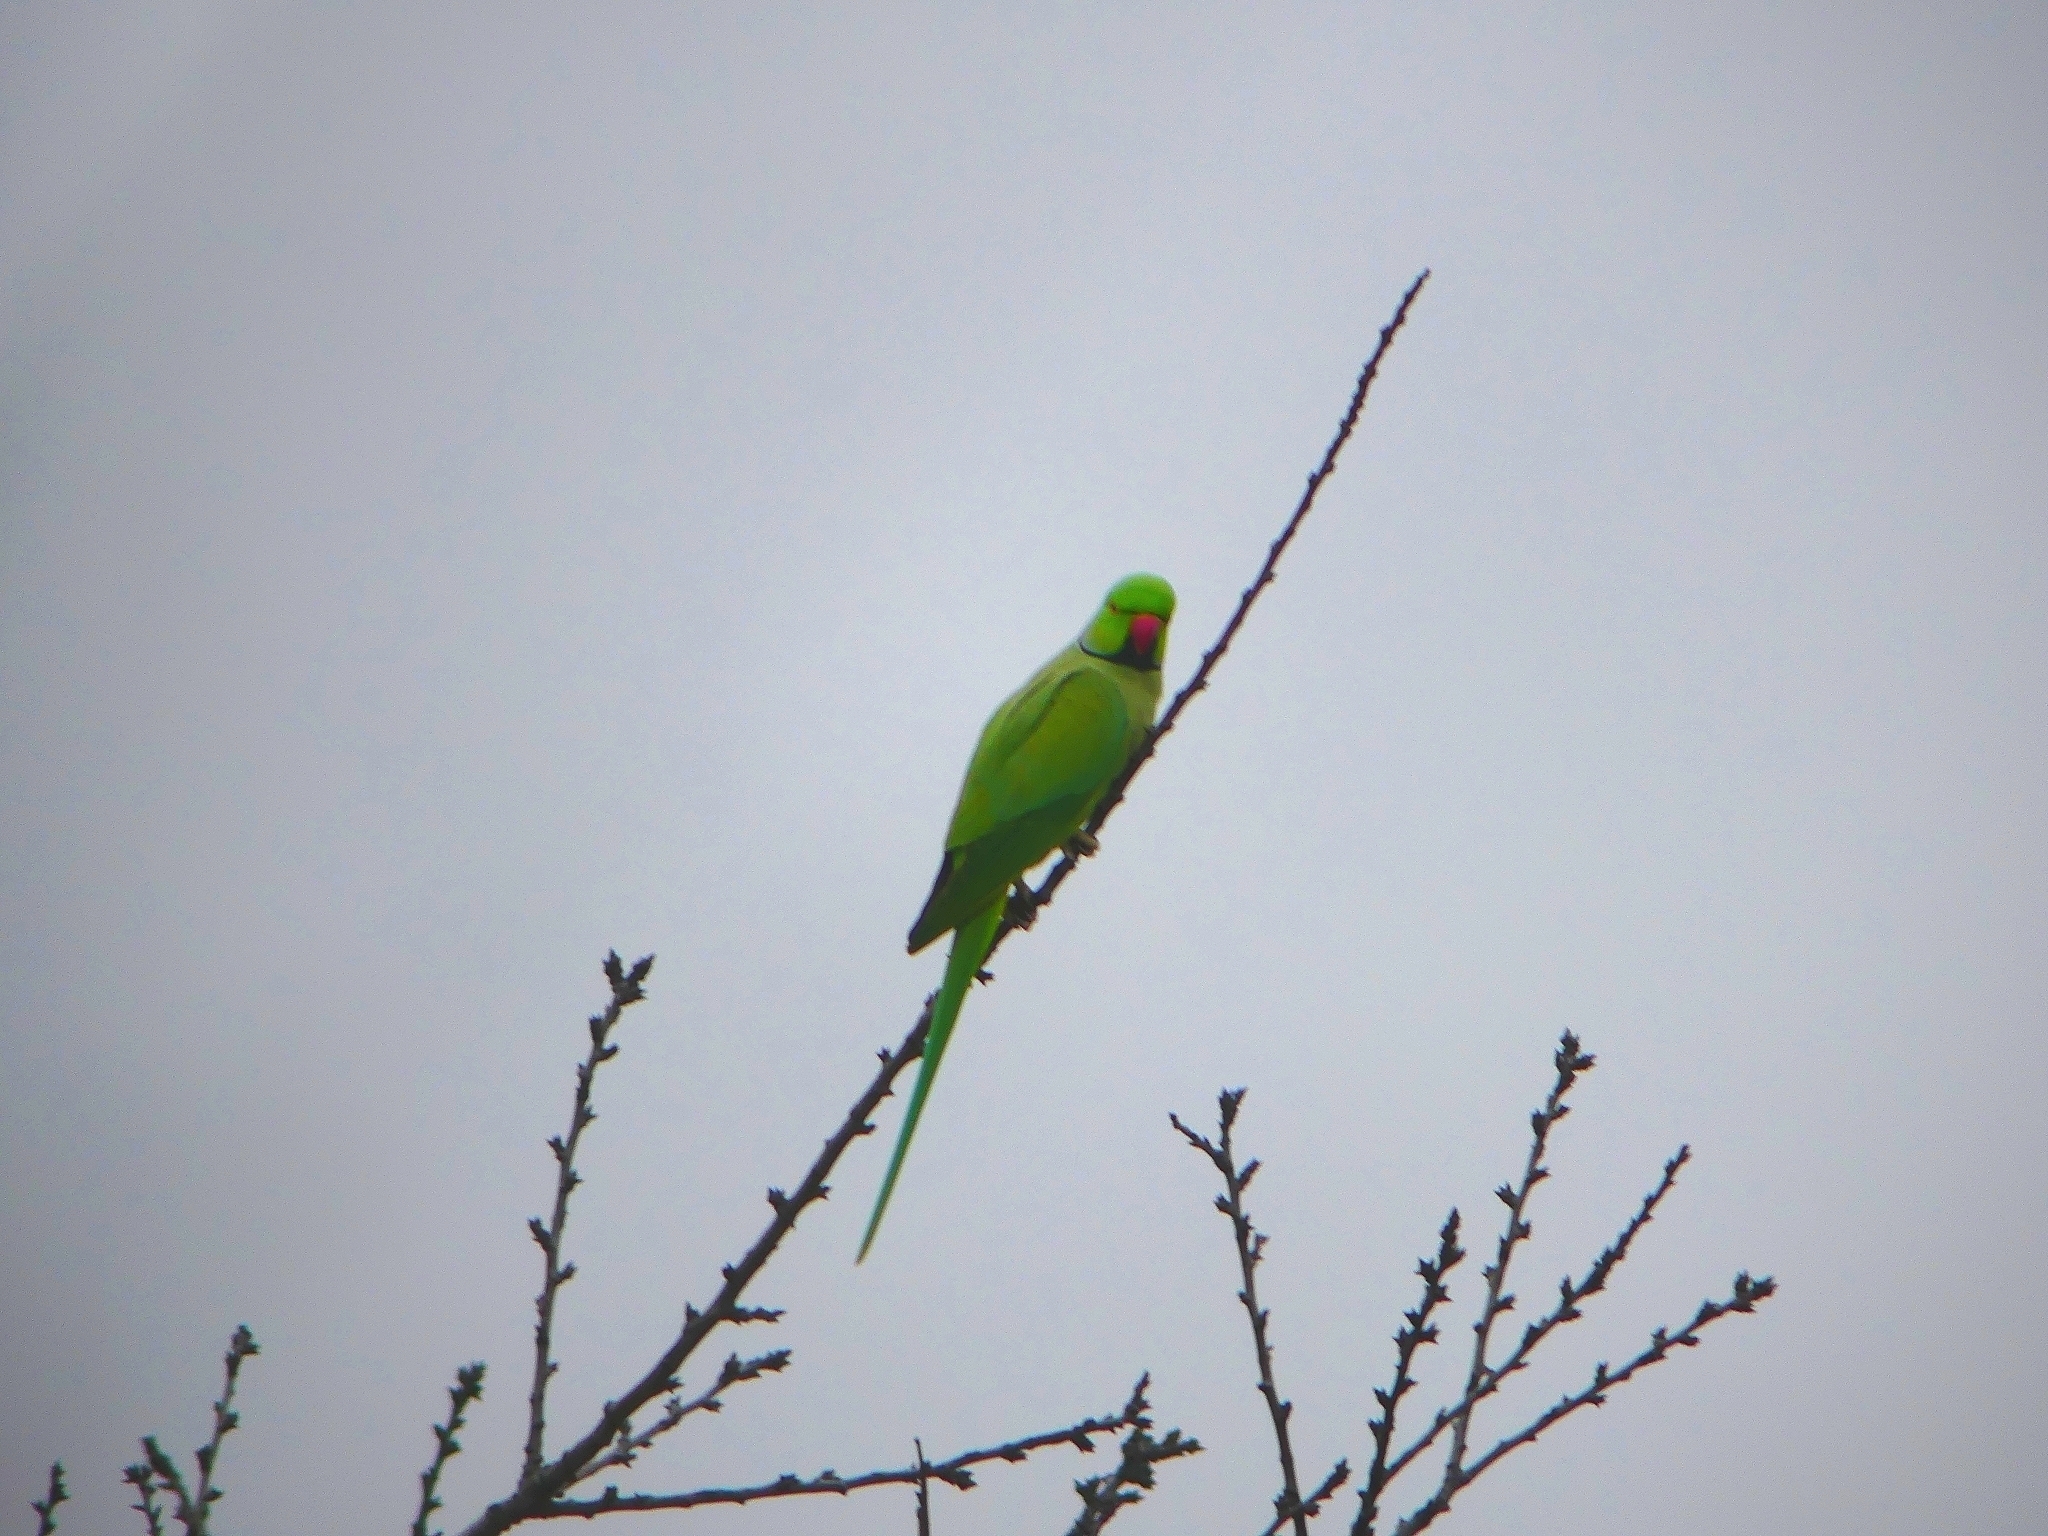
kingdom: Animalia
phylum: Chordata
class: Aves
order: Psittaciformes
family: Psittacidae
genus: Psittacula
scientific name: Psittacula krameri
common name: Rose-ringed parakeet
